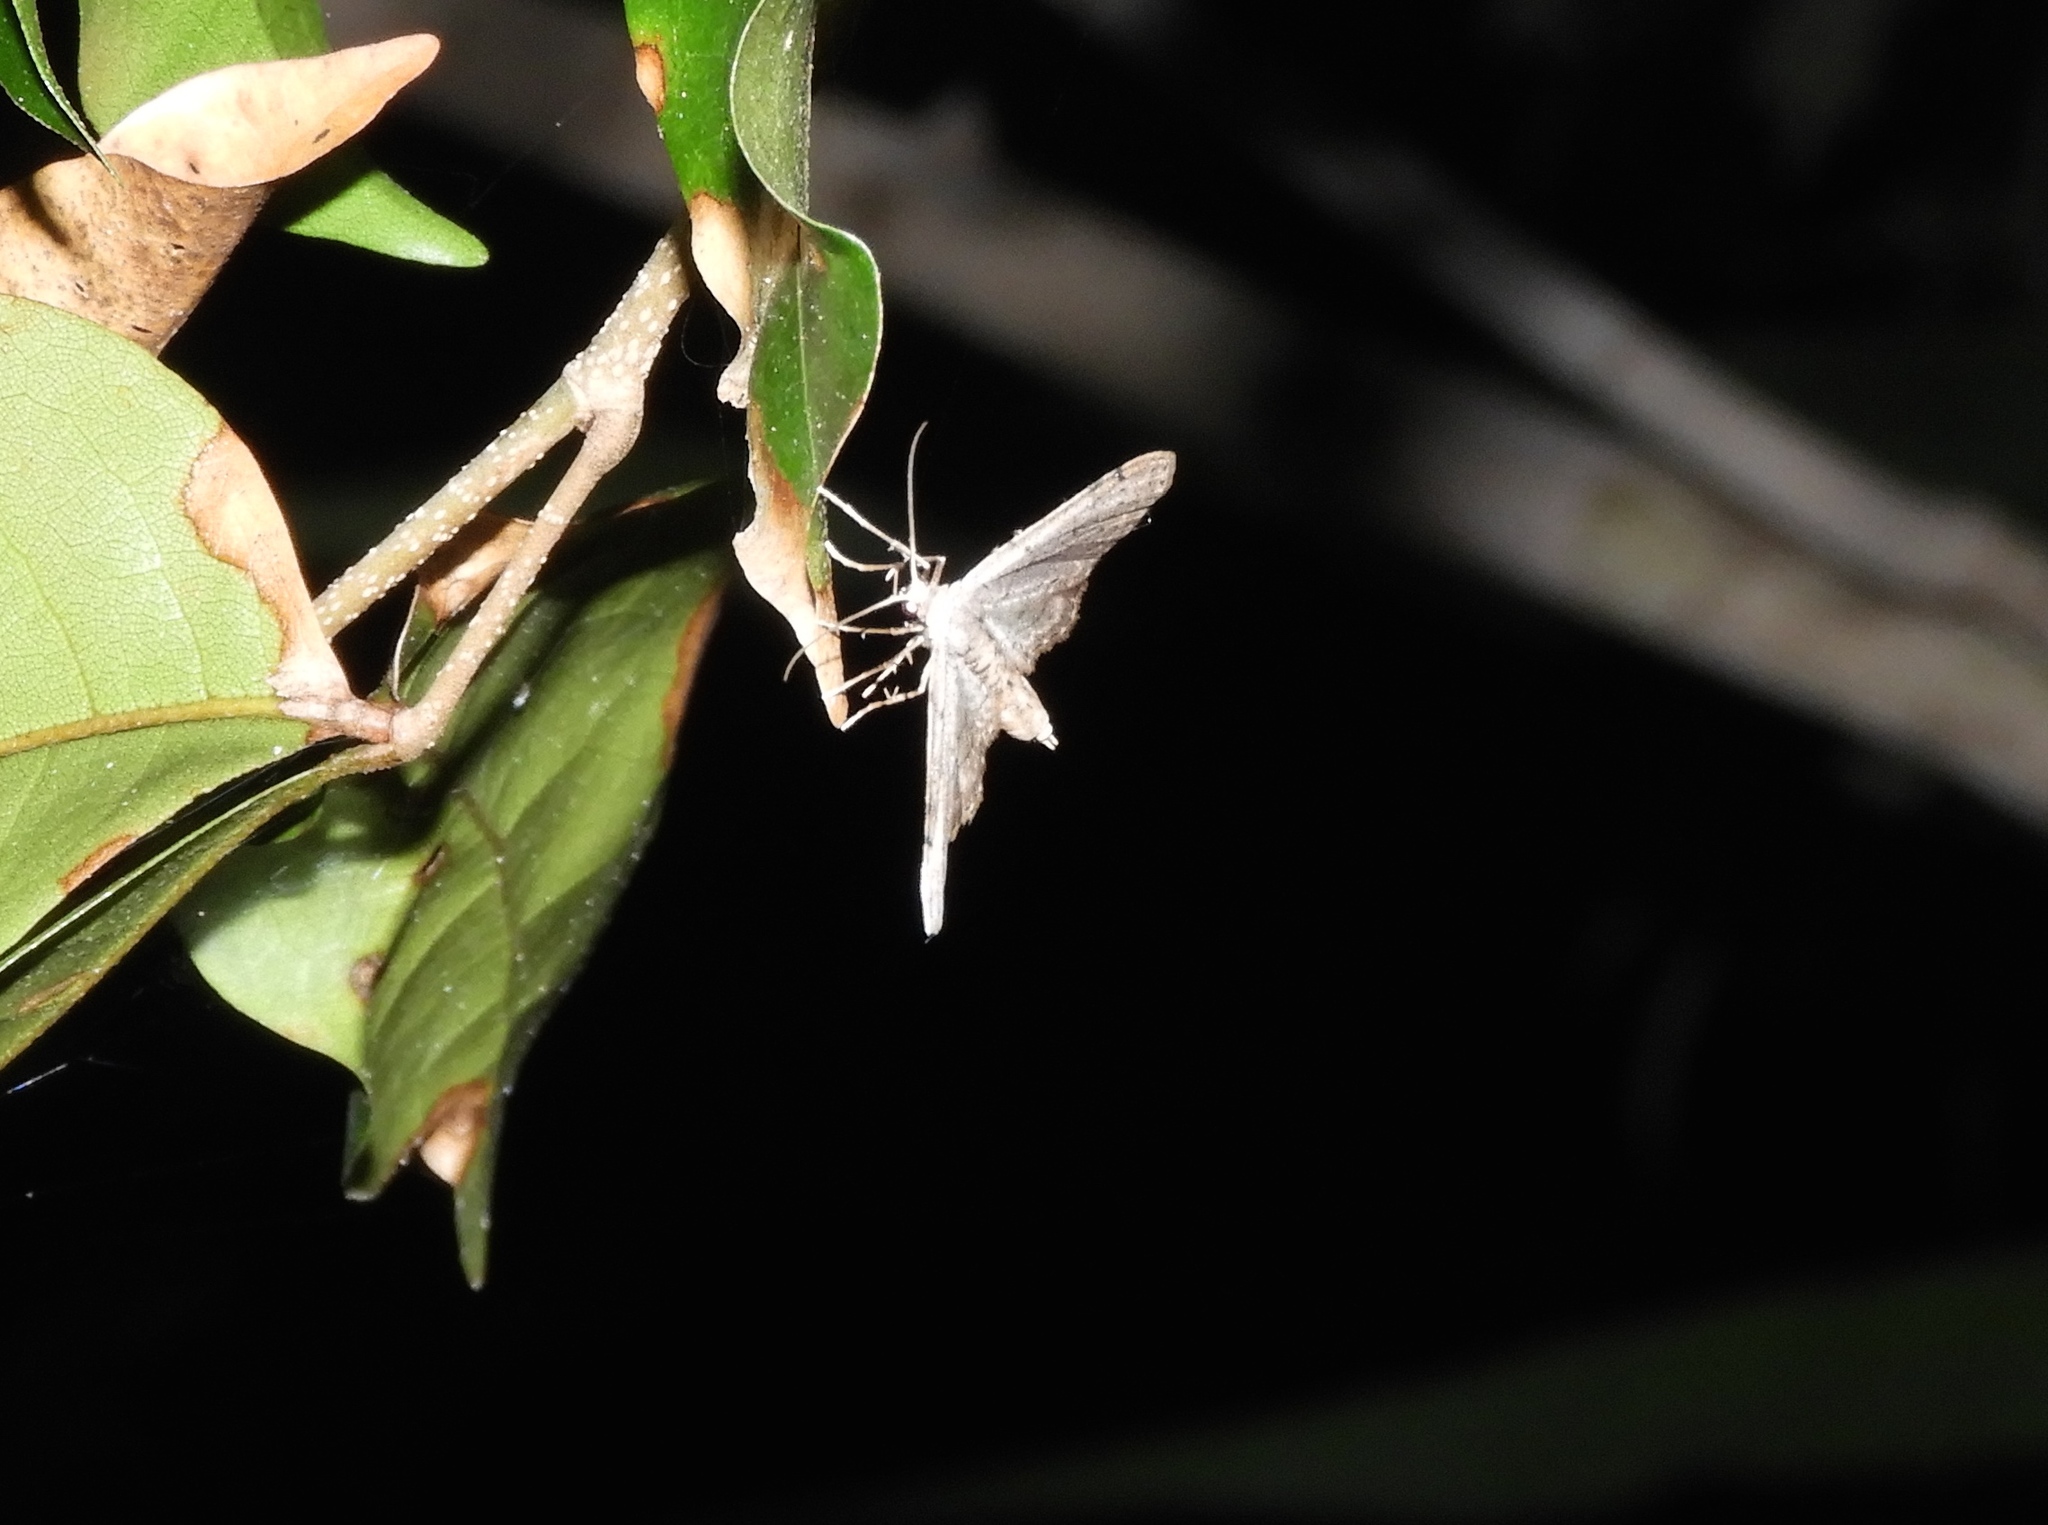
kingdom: Animalia
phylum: Arthropoda
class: Insecta
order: Lepidoptera
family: Geometridae
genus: Digrammia
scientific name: Digrammia
